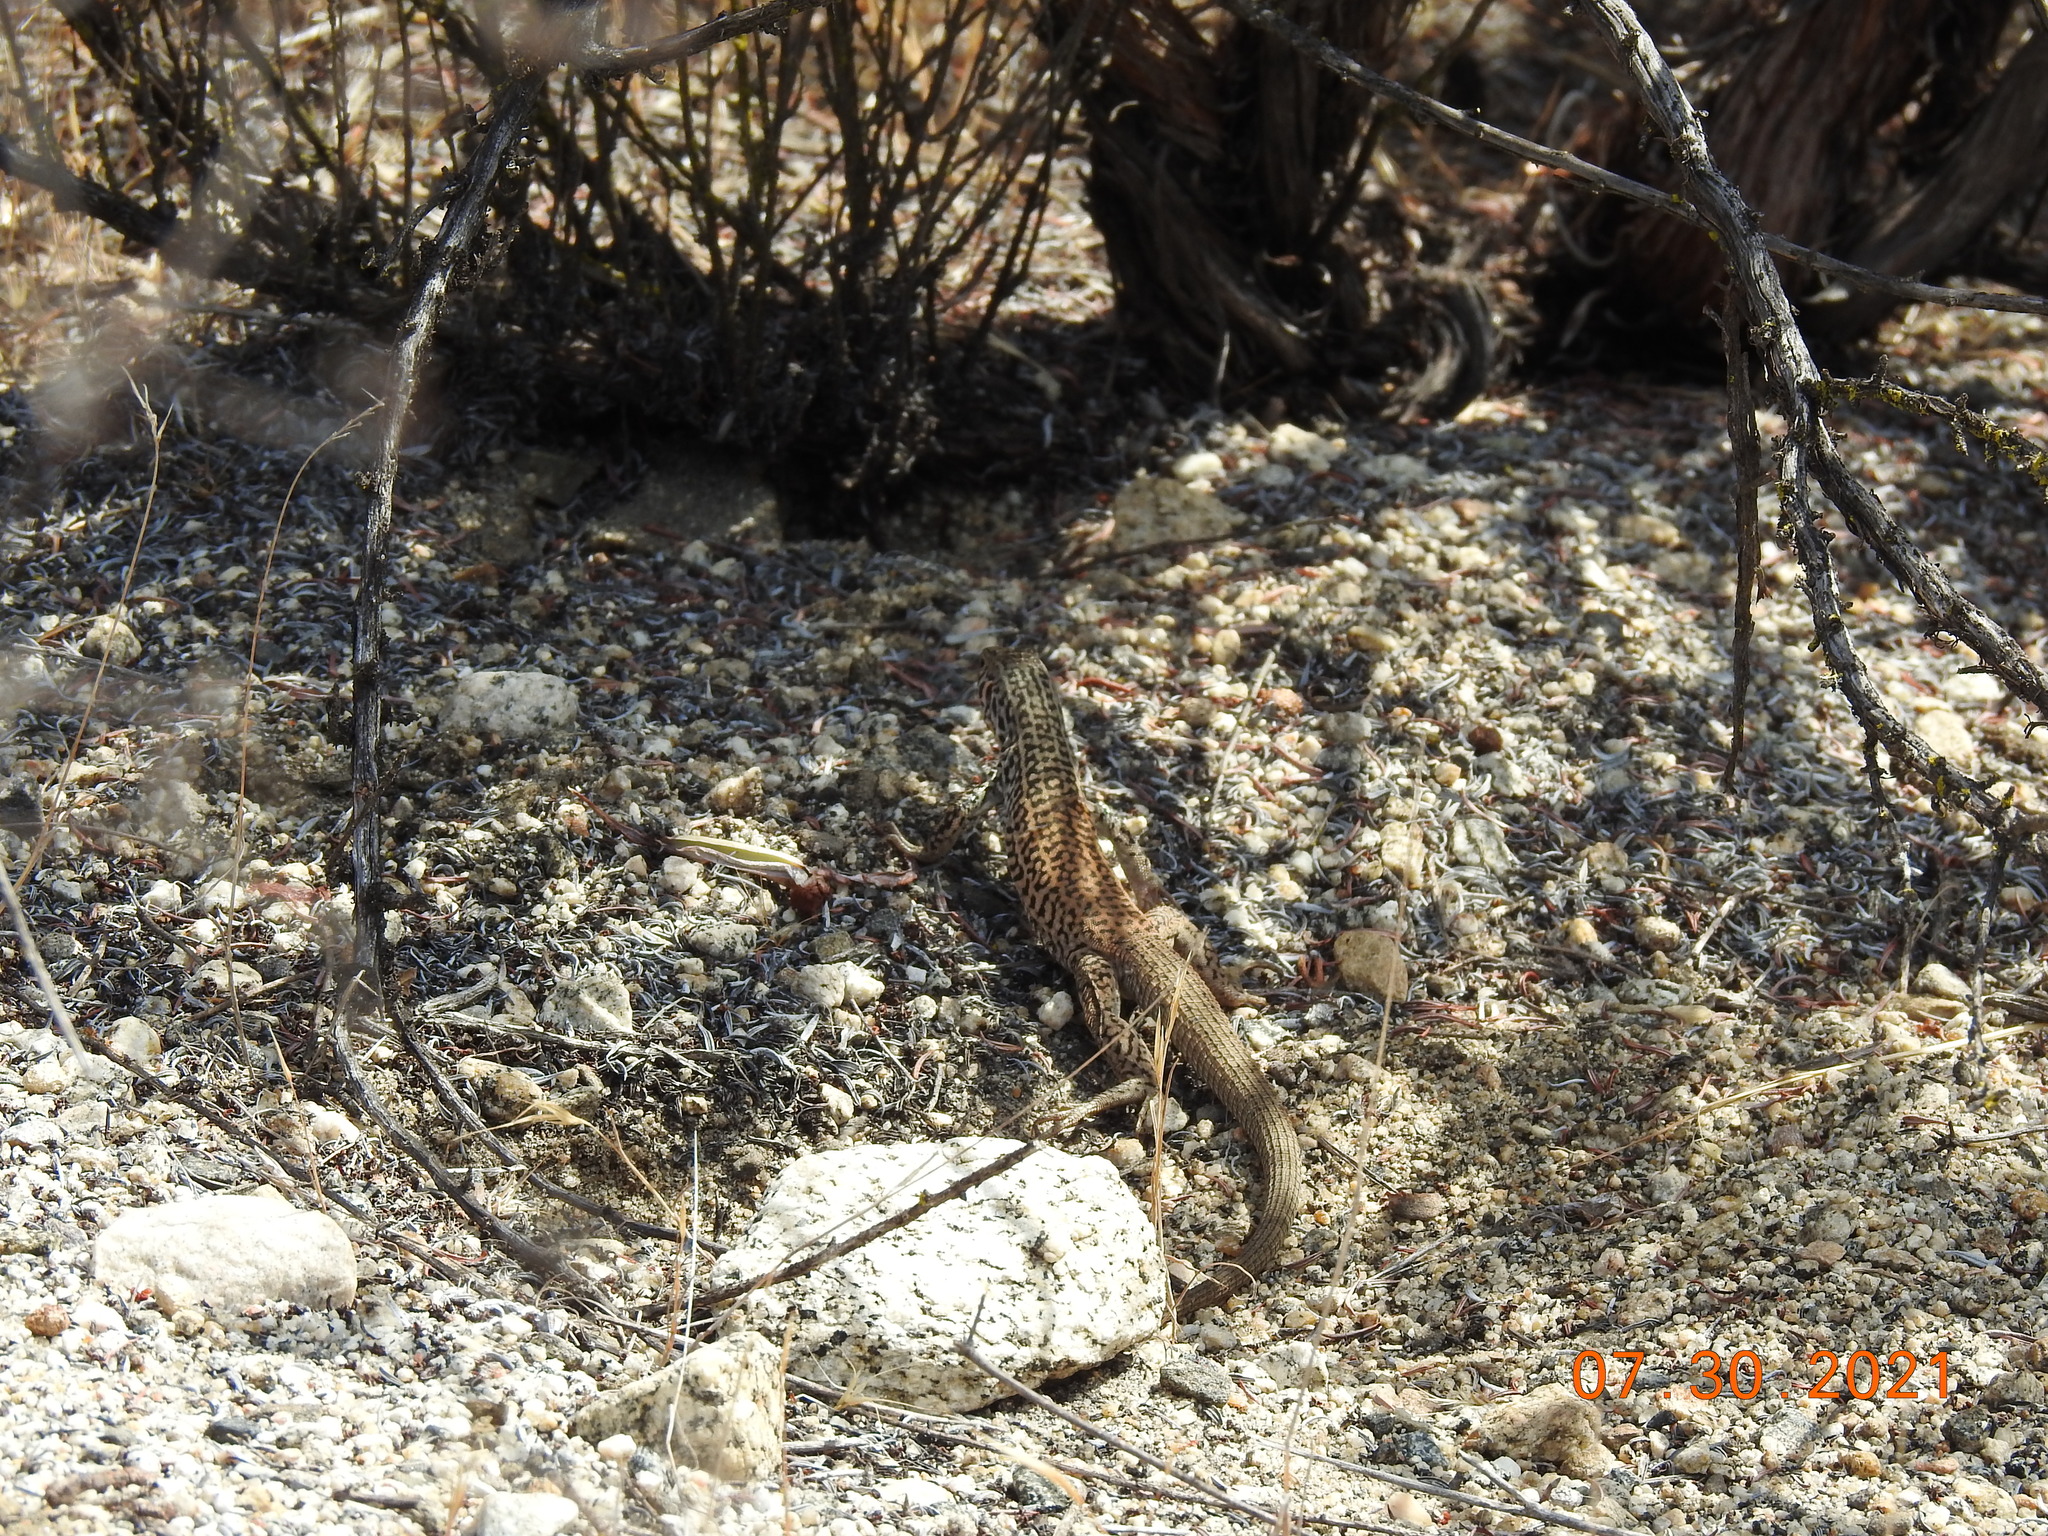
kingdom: Animalia
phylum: Chordata
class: Squamata
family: Teiidae
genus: Aspidoscelis
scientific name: Aspidoscelis tigris
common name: Tiger whiptail
